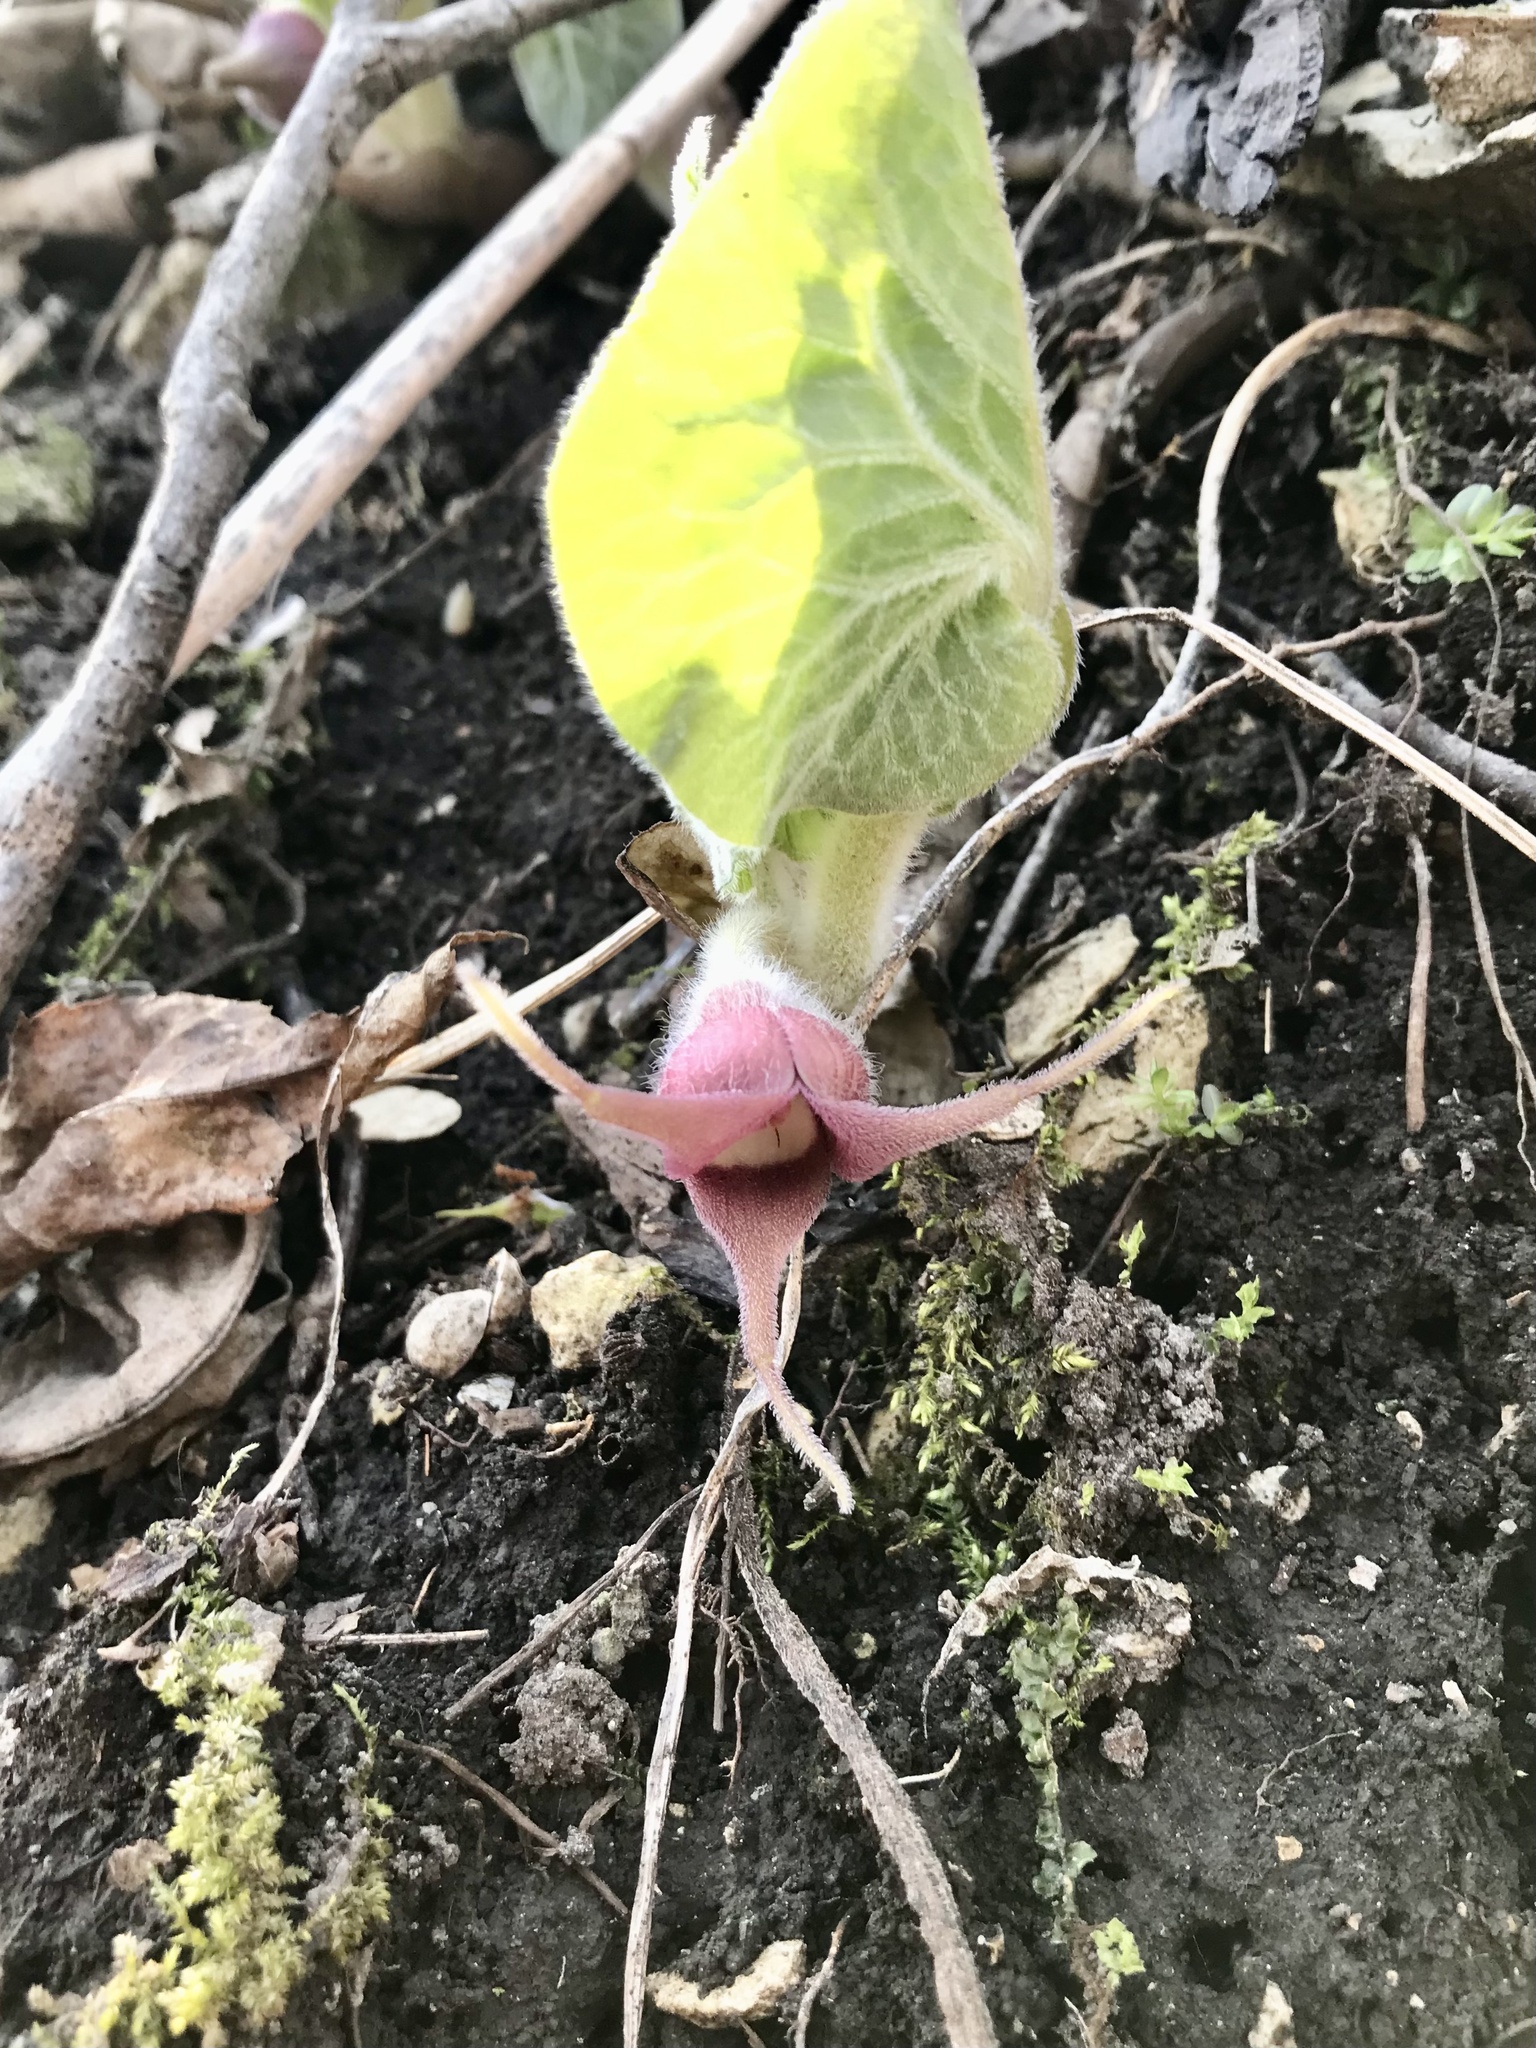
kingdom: Plantae
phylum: Tracheophyta
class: Magnoliopsida
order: Piperales
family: Aristolochiaceae
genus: Asarum
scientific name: Asarum canadense
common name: Wild ginger
